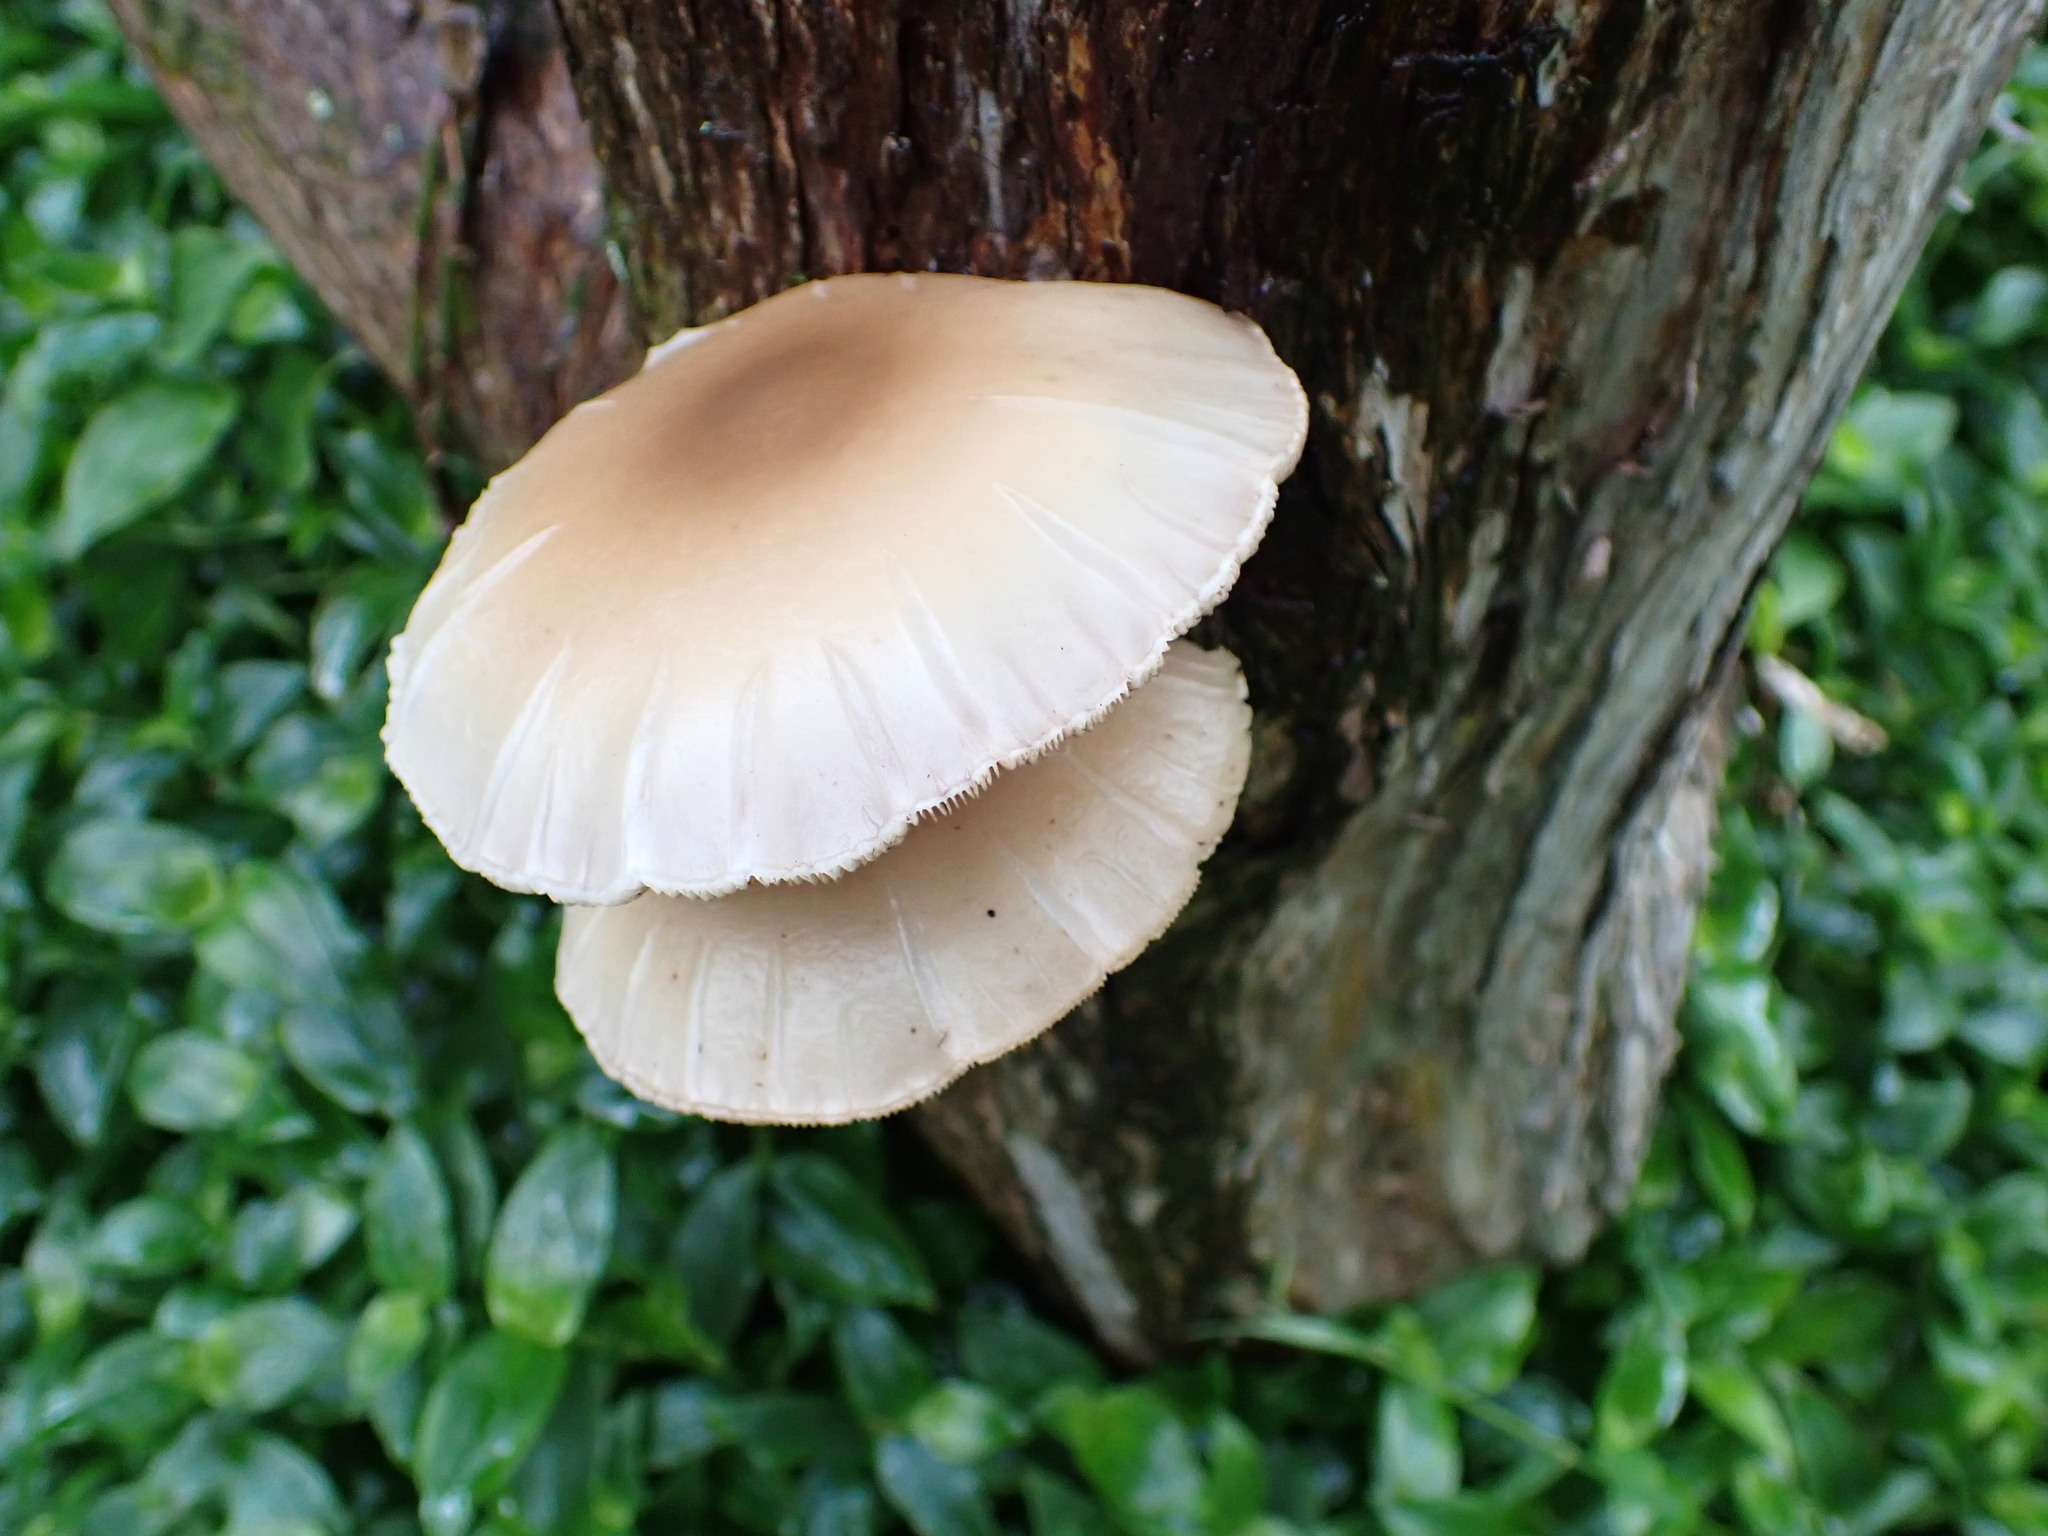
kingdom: Fungi
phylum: Basidiomycota
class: Agaricomycetes
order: Agaricales
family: Tubariaceae
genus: Cyclocybe
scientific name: Cyclocybe parasitica
